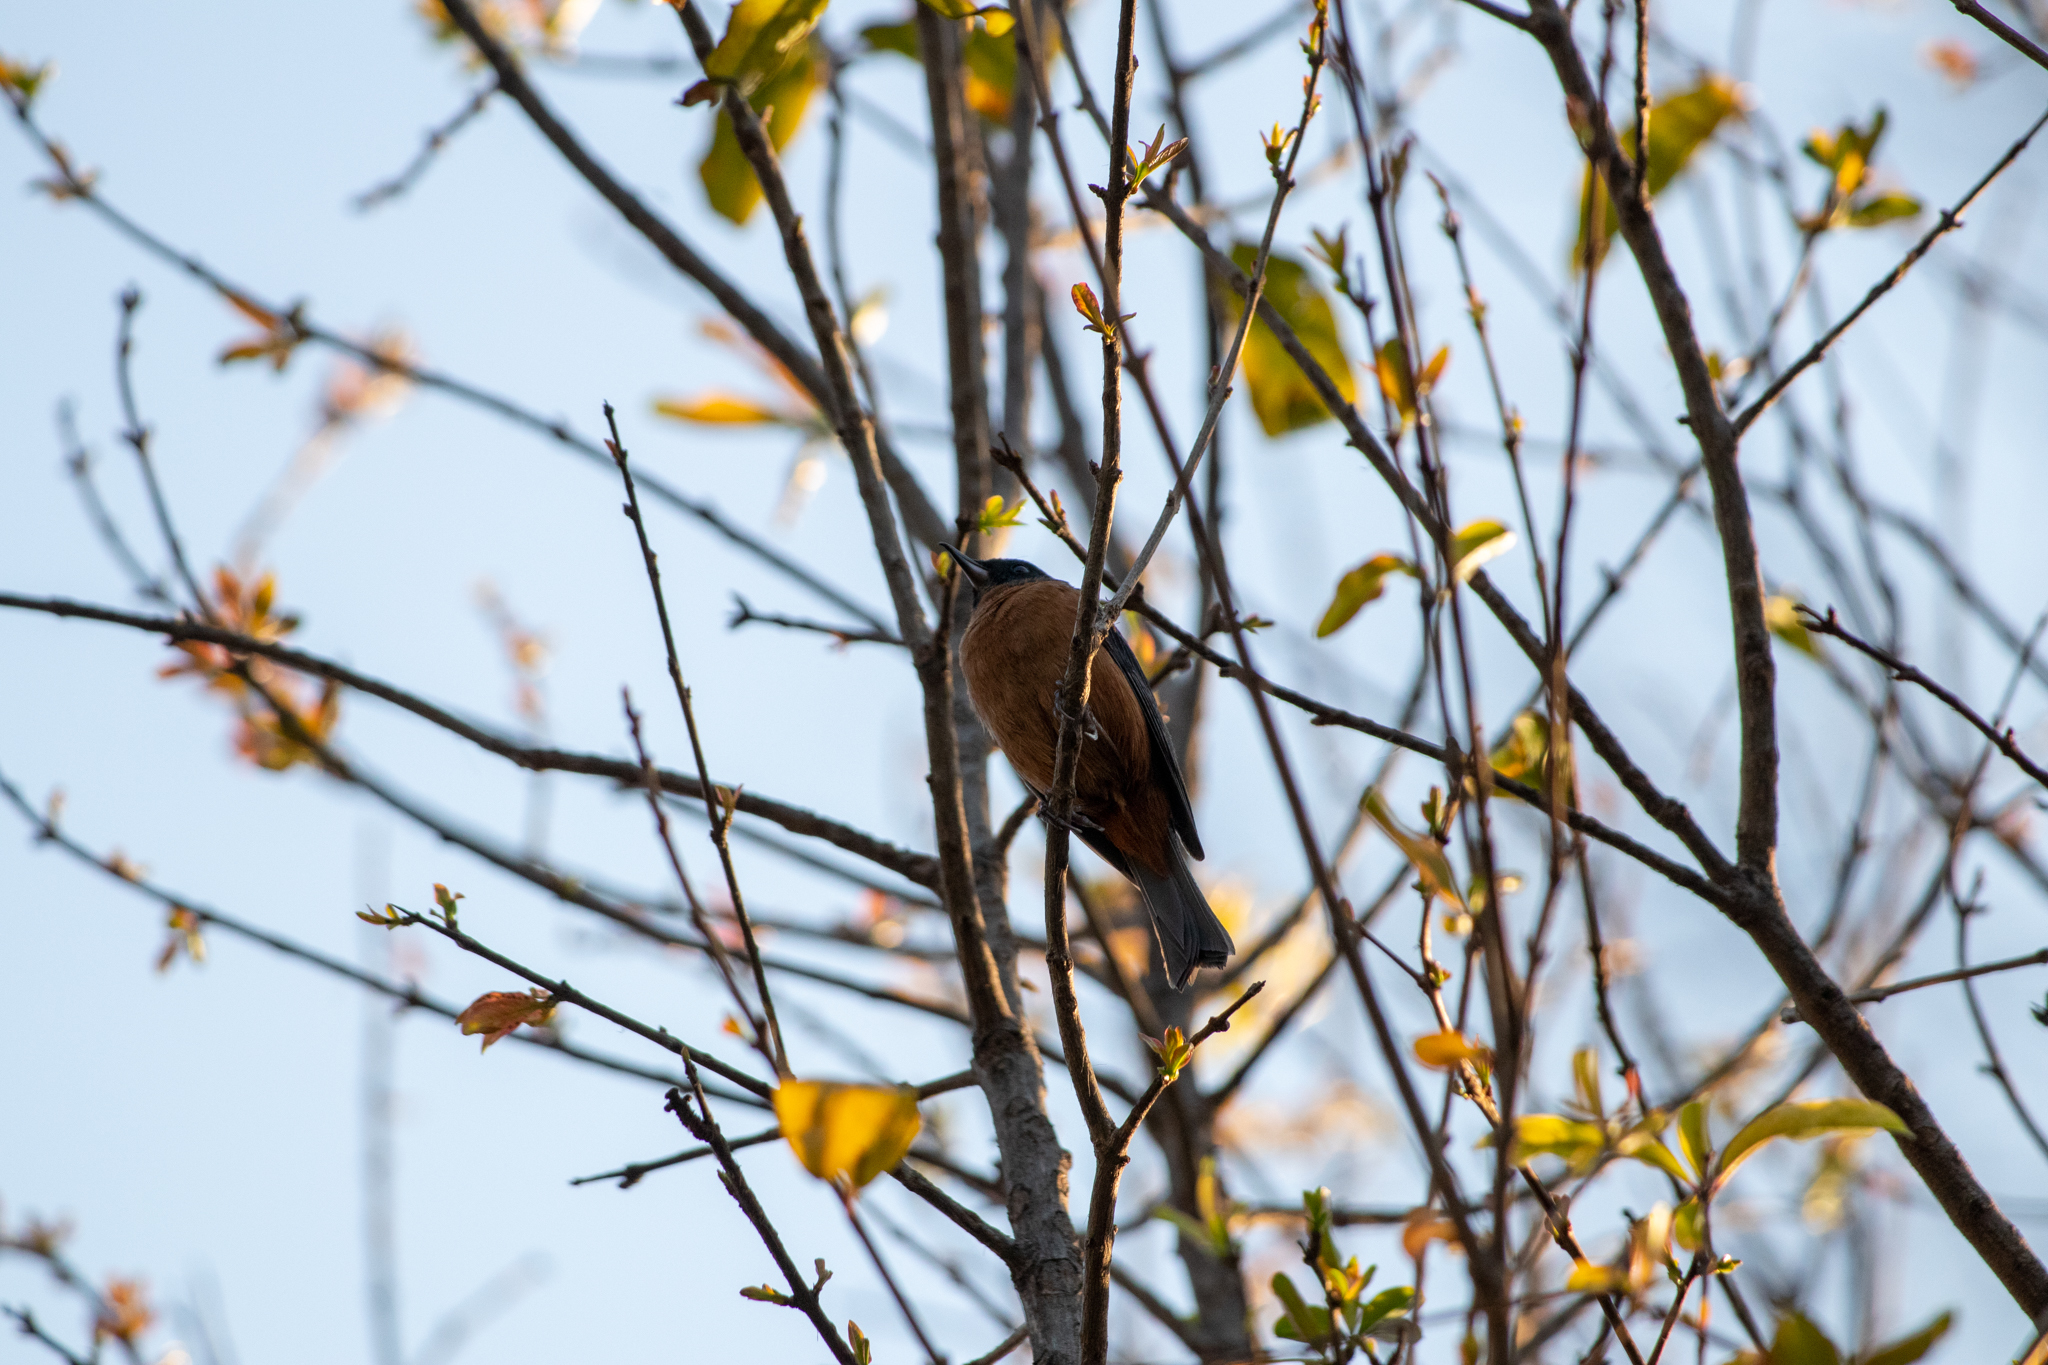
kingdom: Animalia
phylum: Chordata
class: Aves
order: Passeriformes
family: Thraupidae
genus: Diglossa
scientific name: Diglossa baritula
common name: Cinnamon-bellied flowerpiercer
